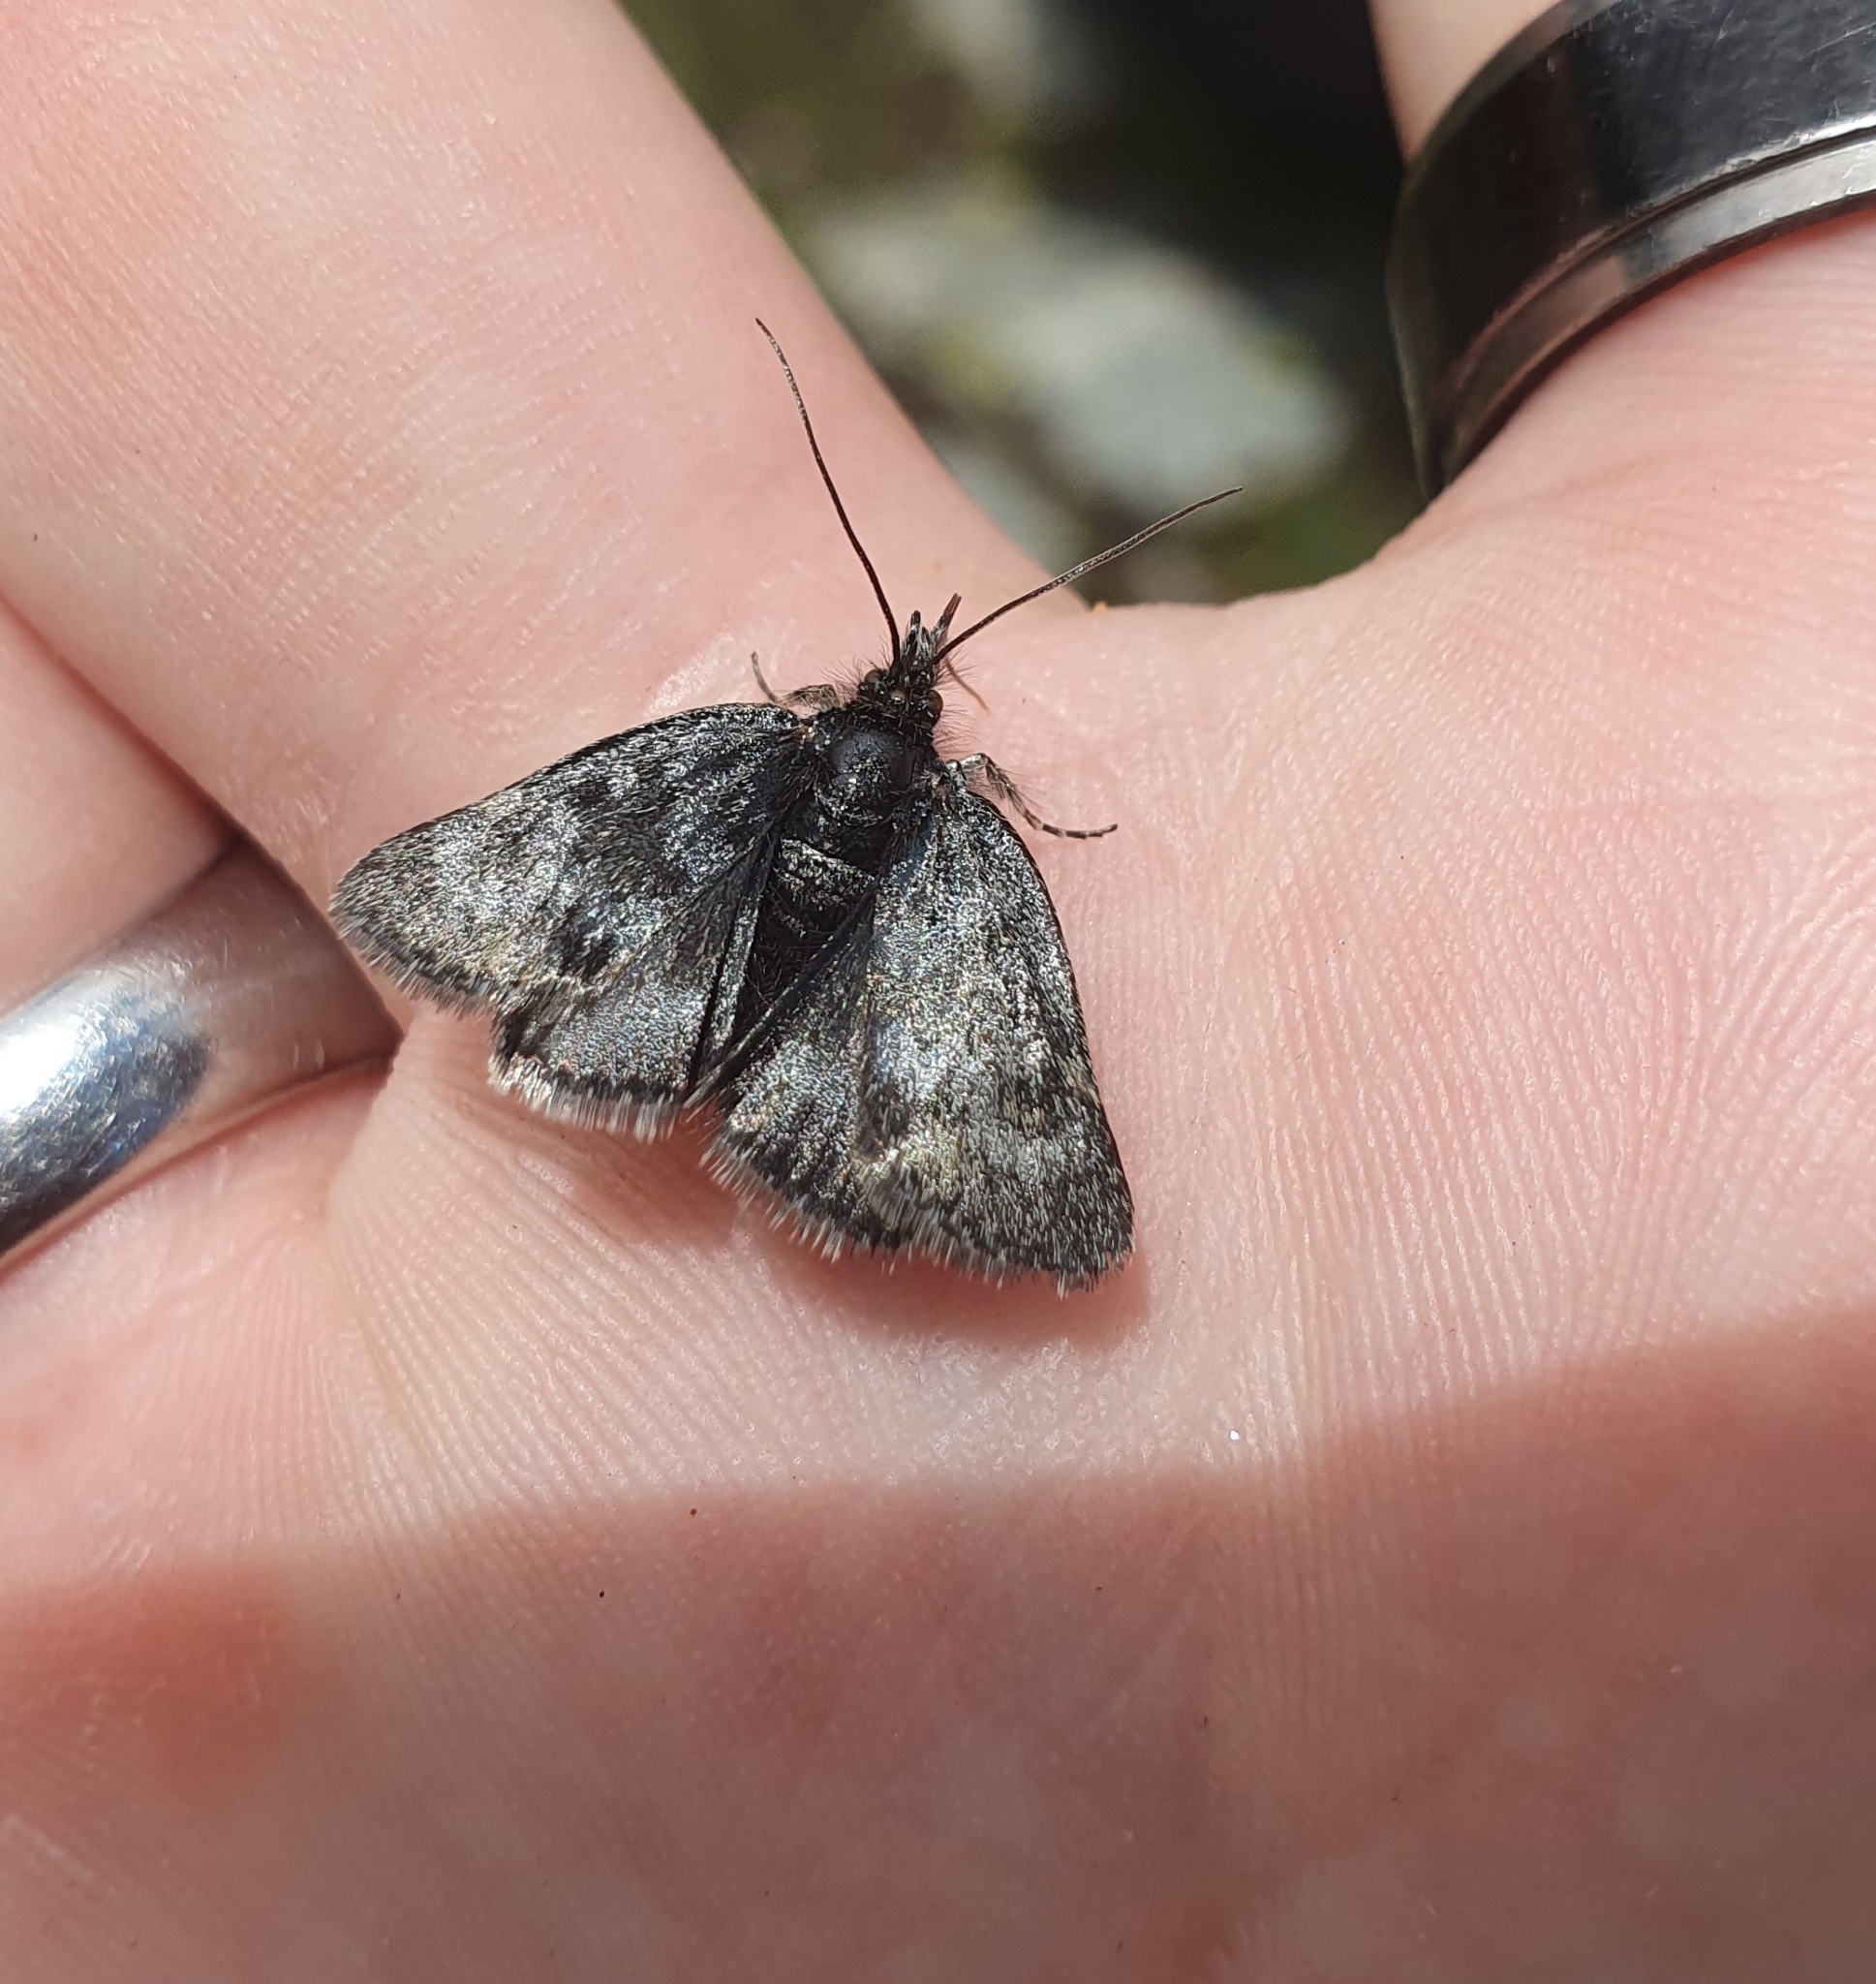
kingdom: Animalia
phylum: Arthropoda
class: Insecta
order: Lepidoptera
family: Crambidae
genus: Metaxmeste
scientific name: Metaxmeste phrygialis
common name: Black mountain pearl
